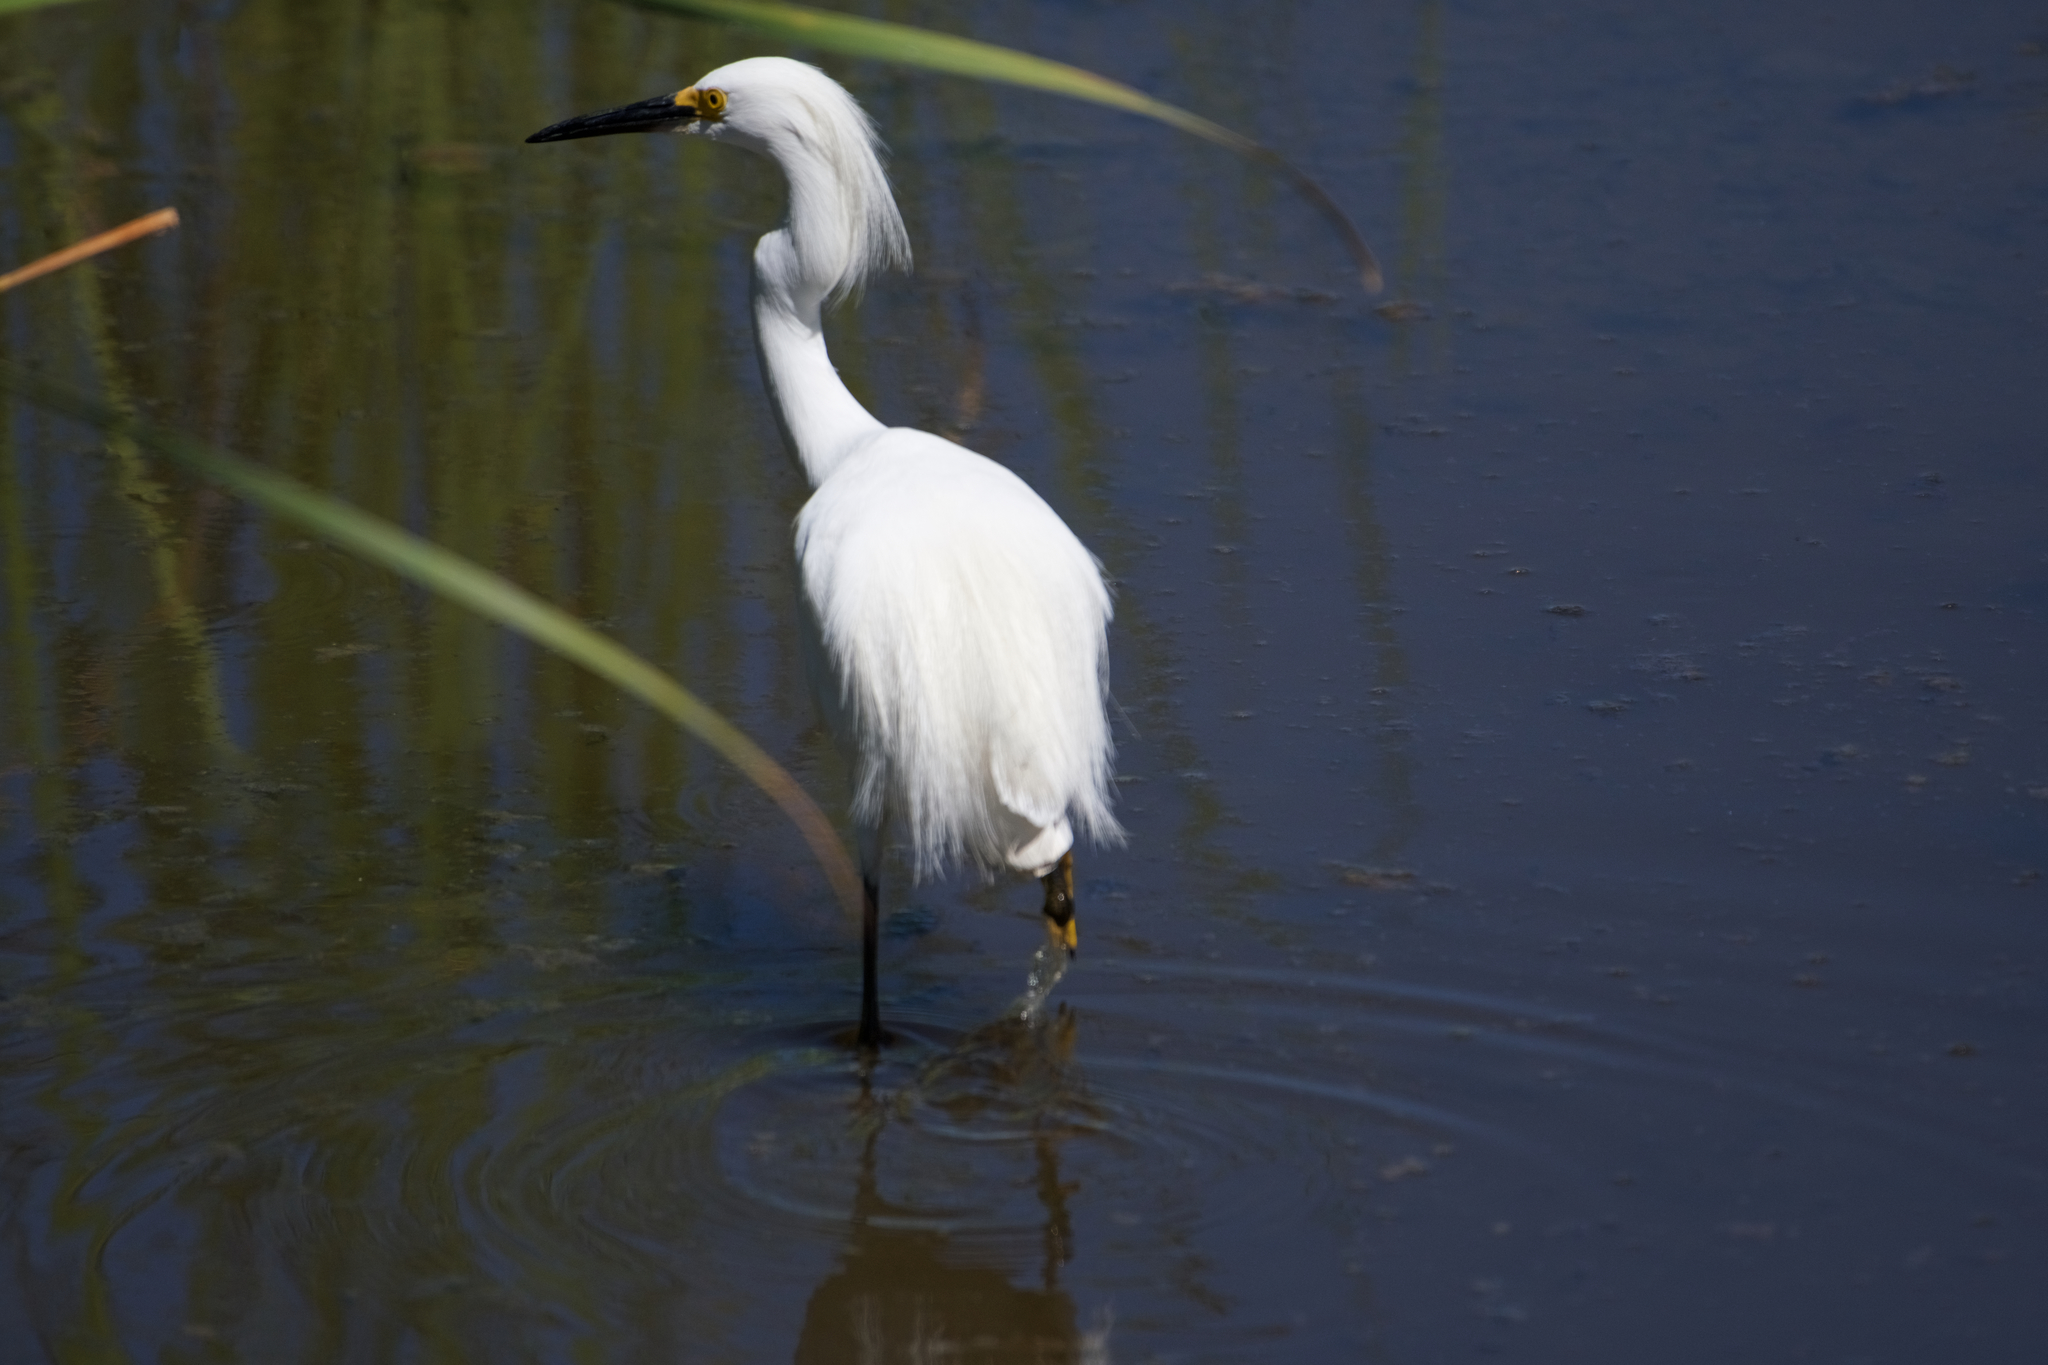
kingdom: Animalia
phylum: Chordata
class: Aves
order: Pelecaniformes
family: Ardeidae
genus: Egretta
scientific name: Egretta thula
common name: Snowy egret
